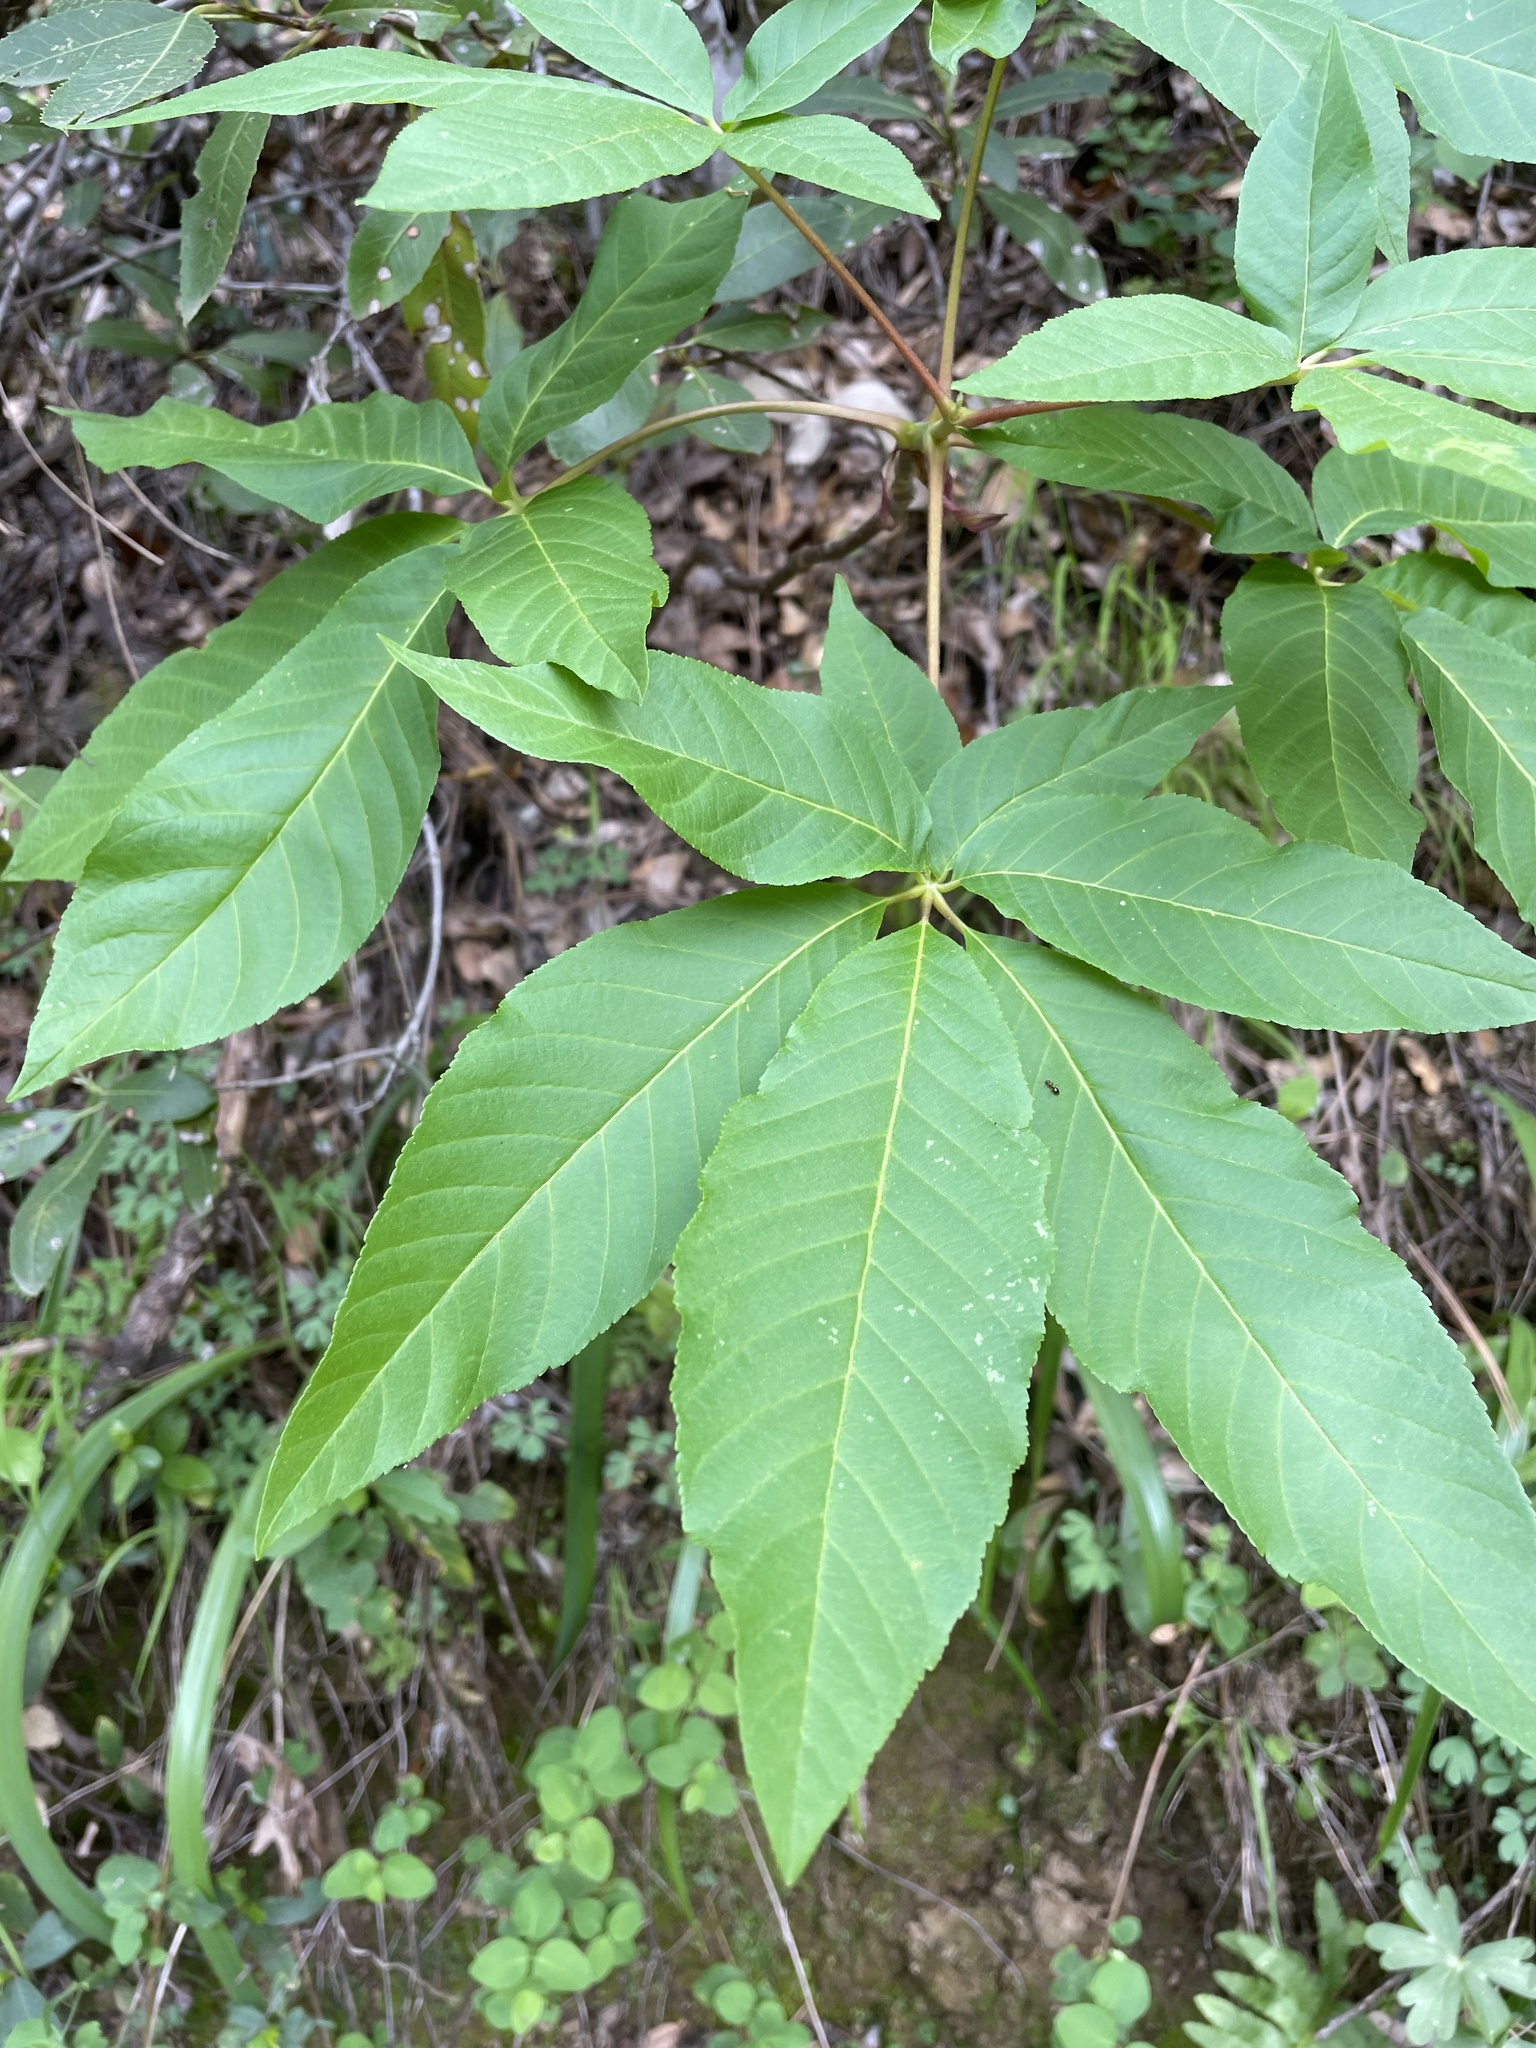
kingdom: Plantae
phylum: Tracheophyta
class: Magnoliopsida
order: Sapindales
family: Sapindaceae
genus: Aesculus
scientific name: Aesculus californica
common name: California buckeye
